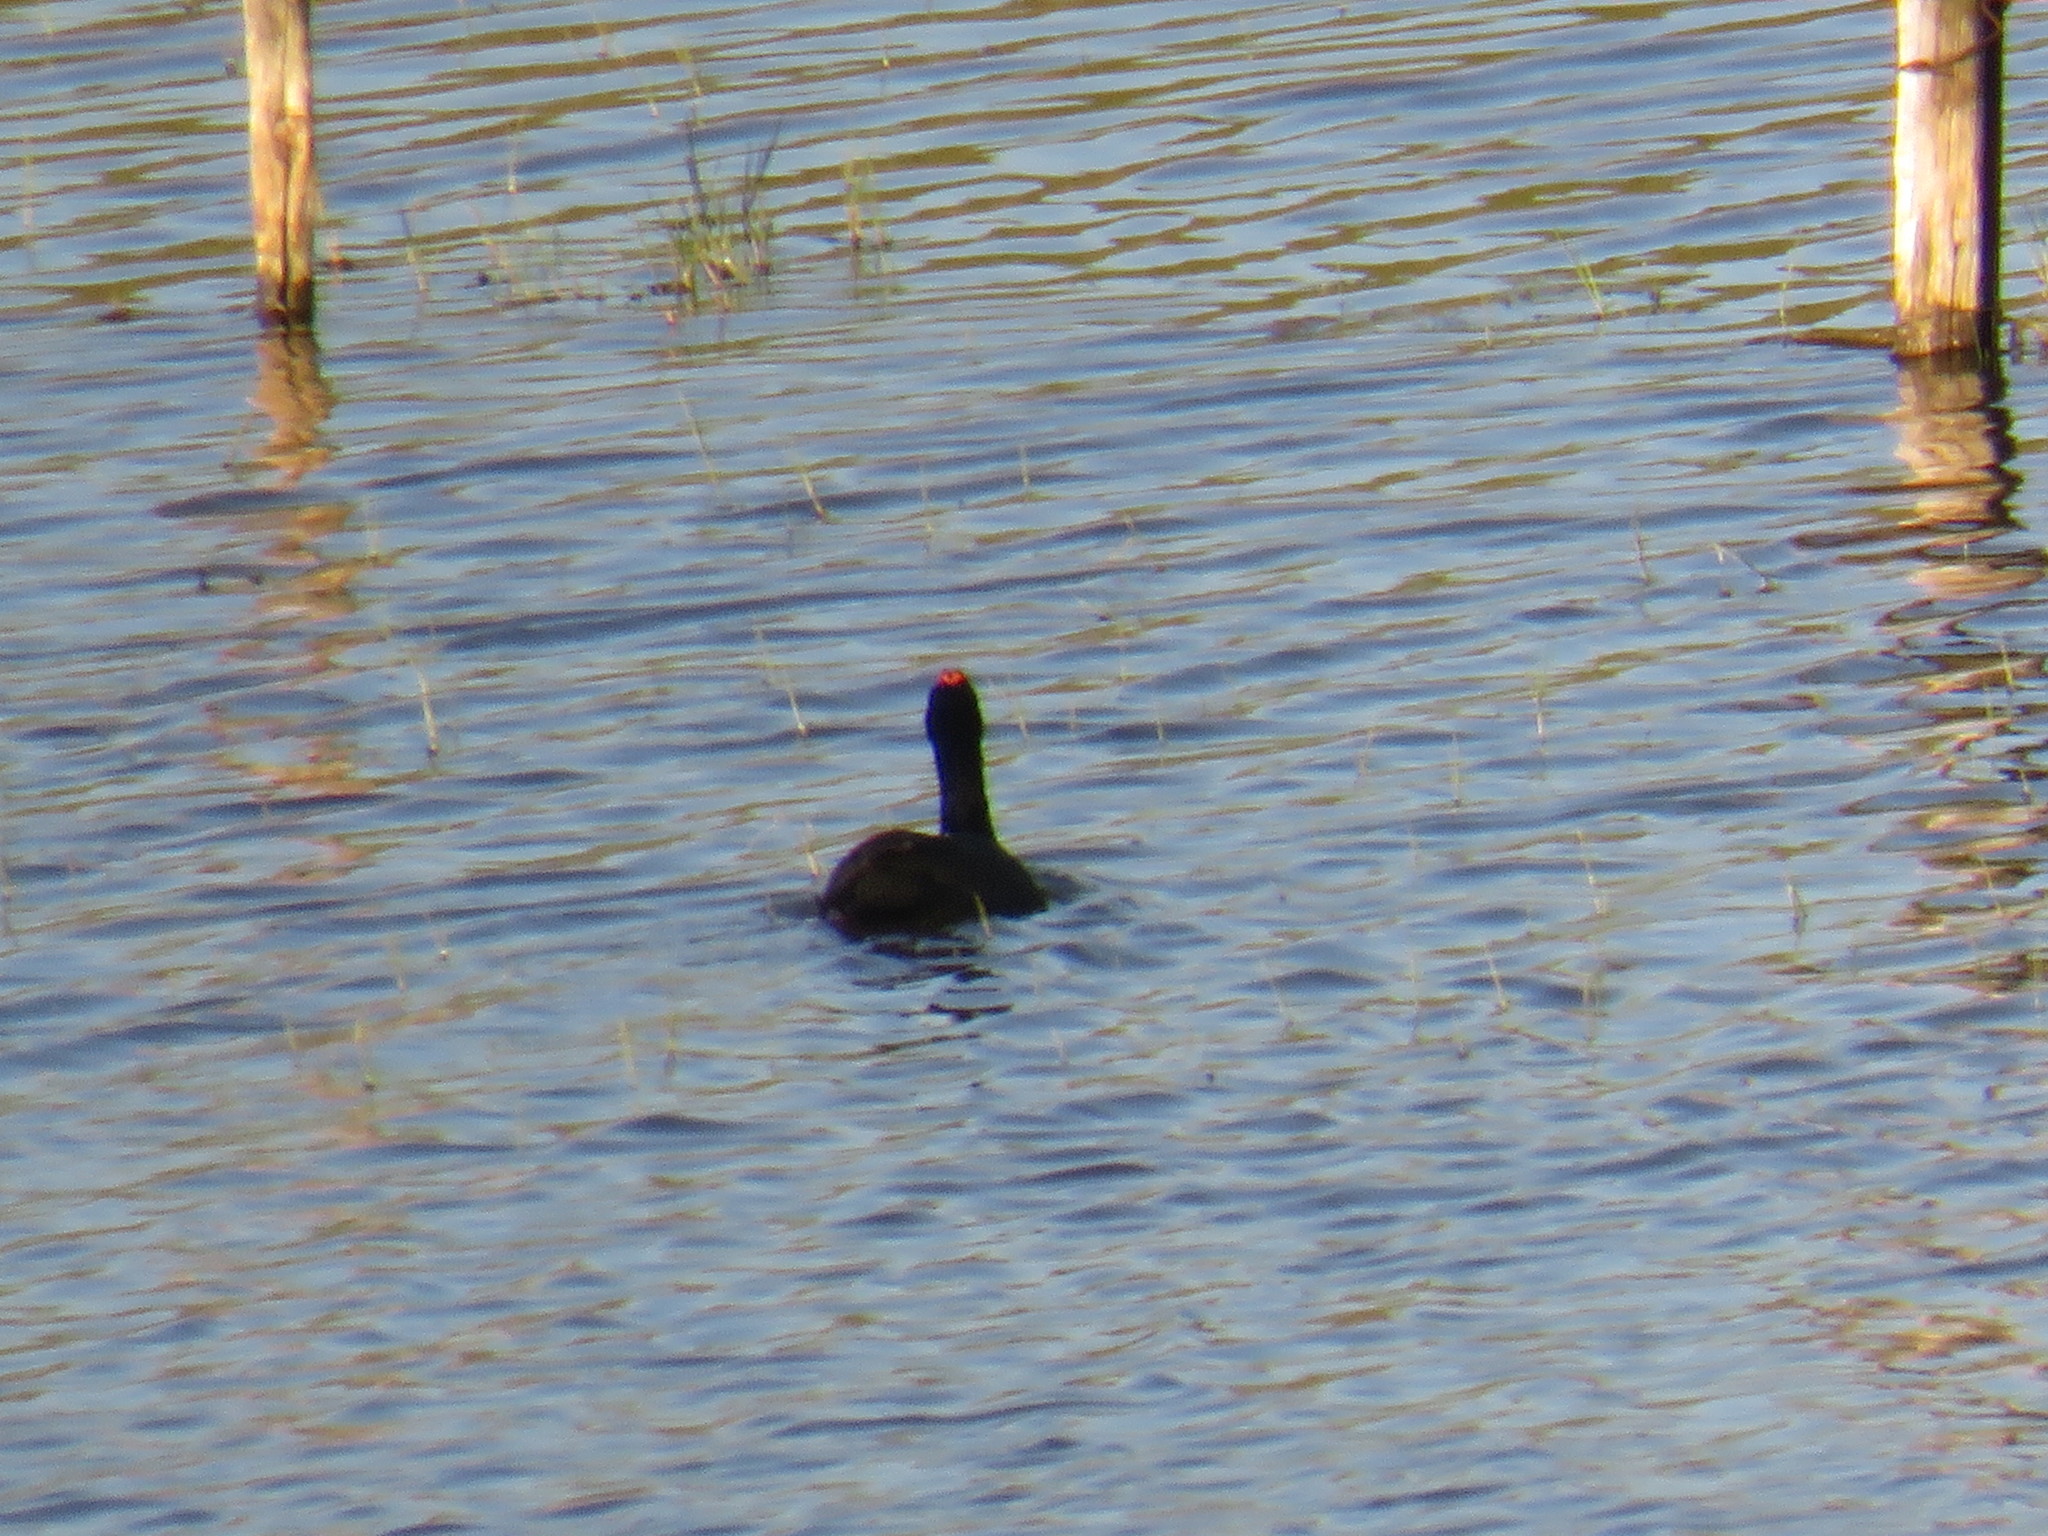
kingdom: Animalia
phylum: Chordata
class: Aves
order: Gruiformes
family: Rallidae
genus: Fulica
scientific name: Fulica cristata
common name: Red-knobbed coot
